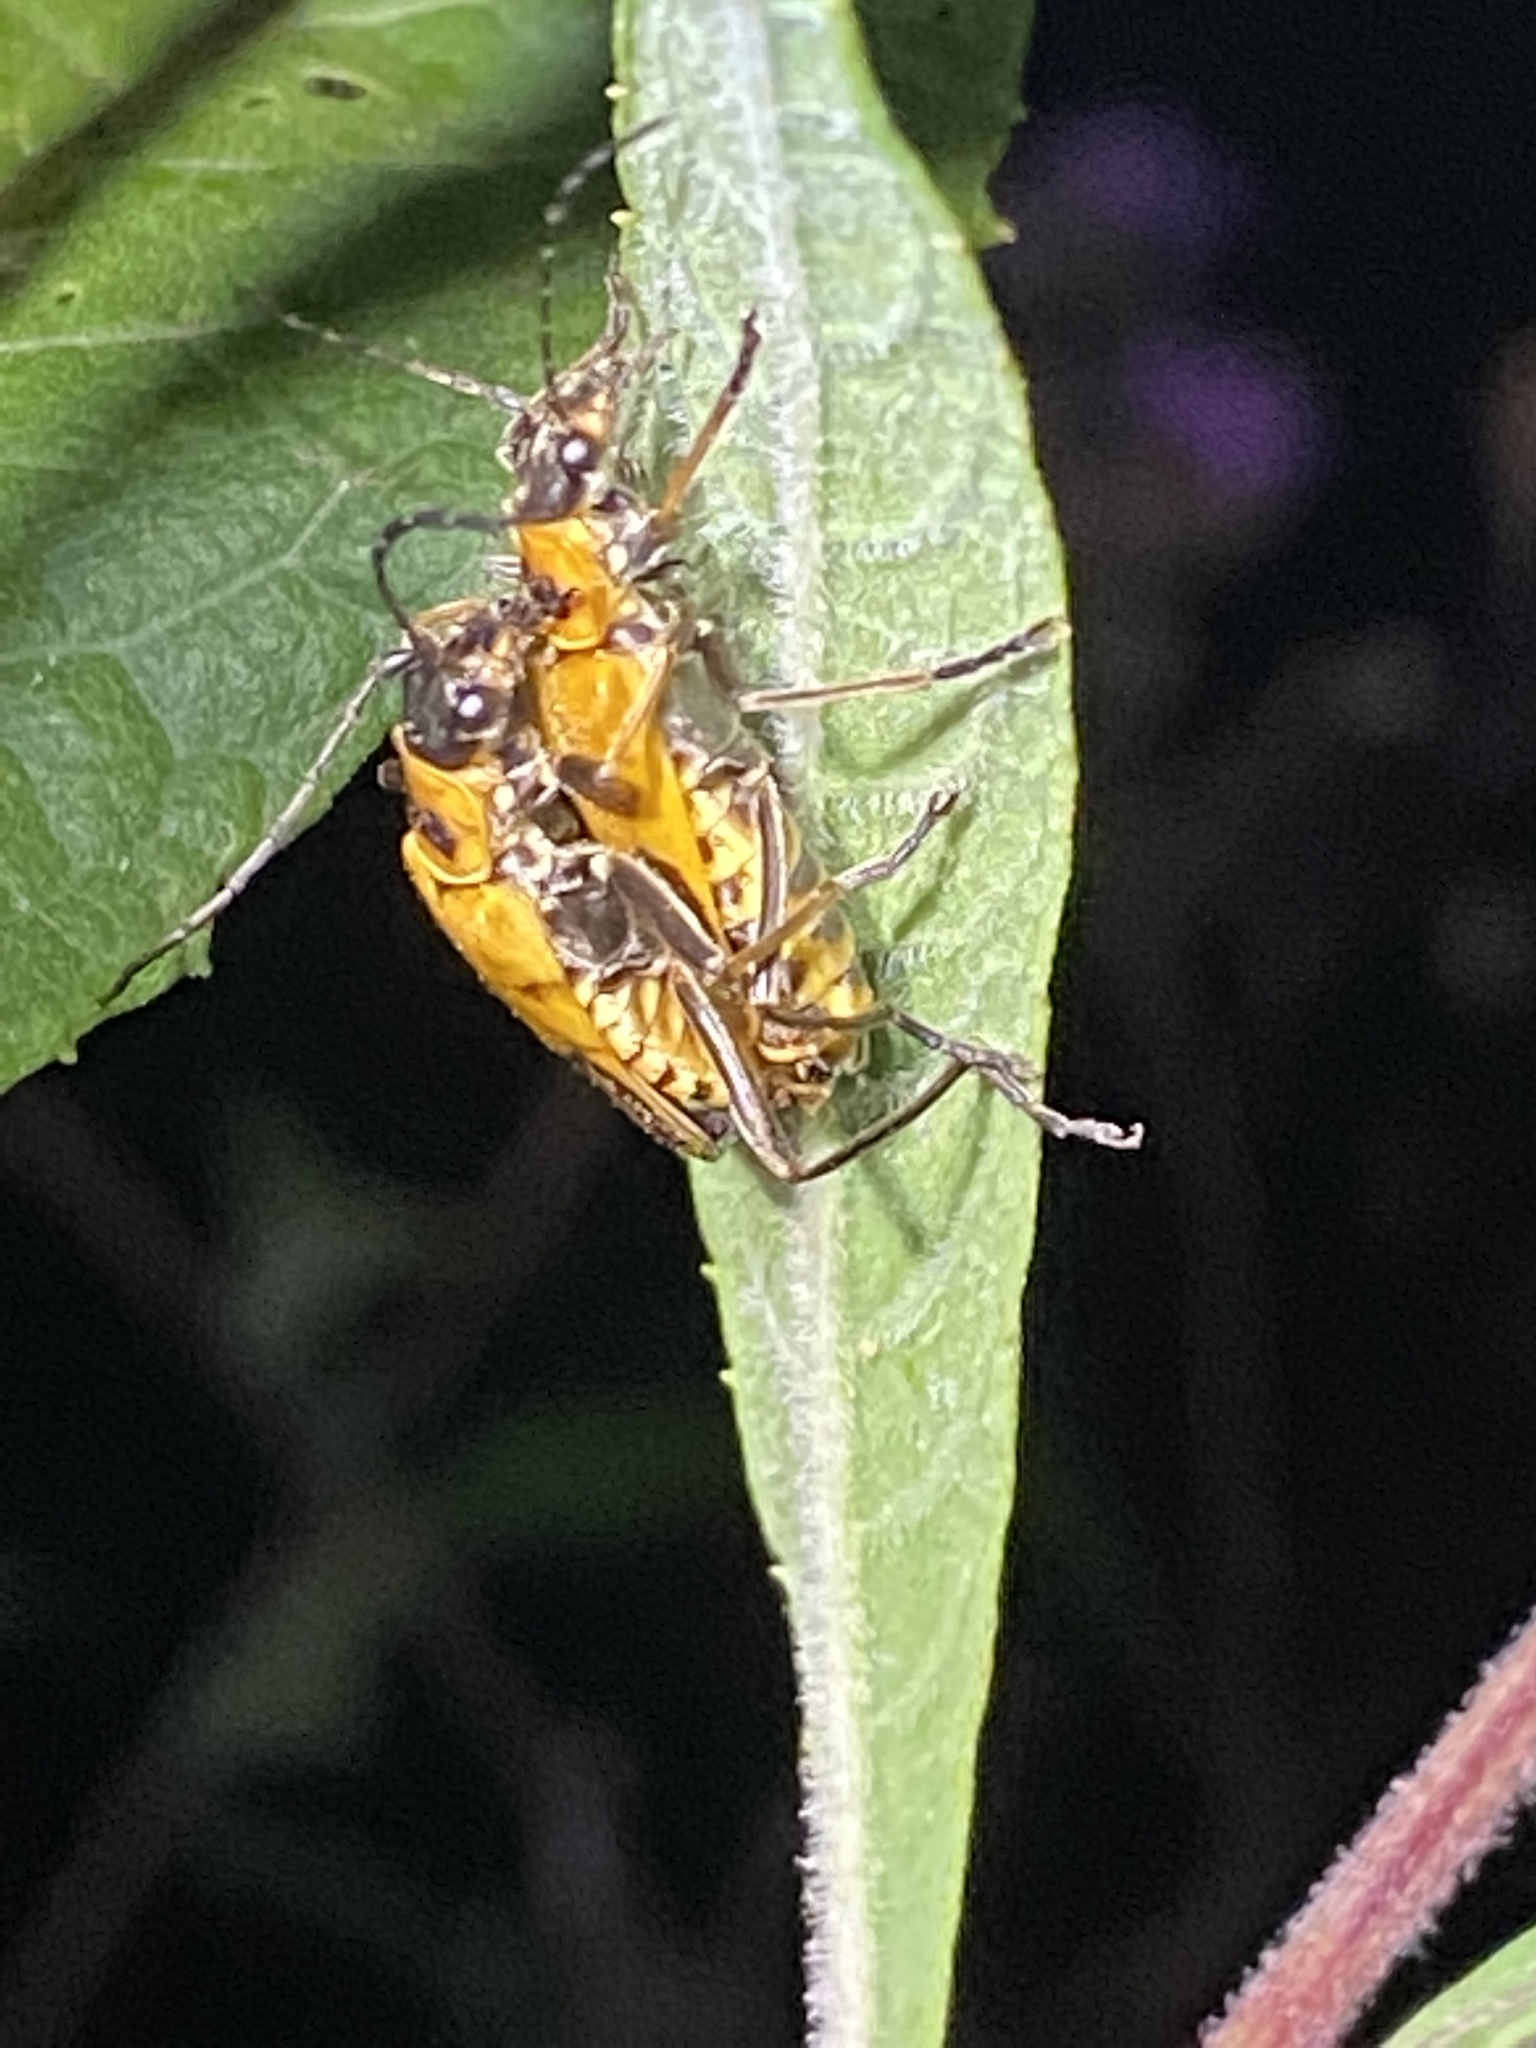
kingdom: Animalia
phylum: Arthropoda
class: Insecta
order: Coleoptera
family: Cantharidae
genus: Chauliognathus
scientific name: Chauliognathus pensylvanicus
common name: Goldenrod soldier beetle
